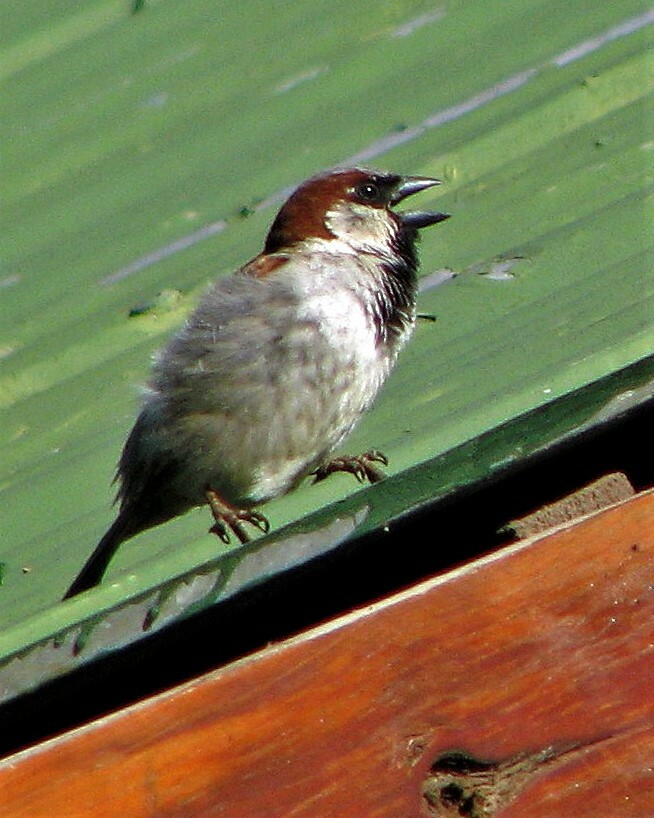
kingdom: Animalia
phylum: Chordata
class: Aves
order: Passeriformes
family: Passeridae
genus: Passer
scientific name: Passer domesticus
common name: House sparrow
